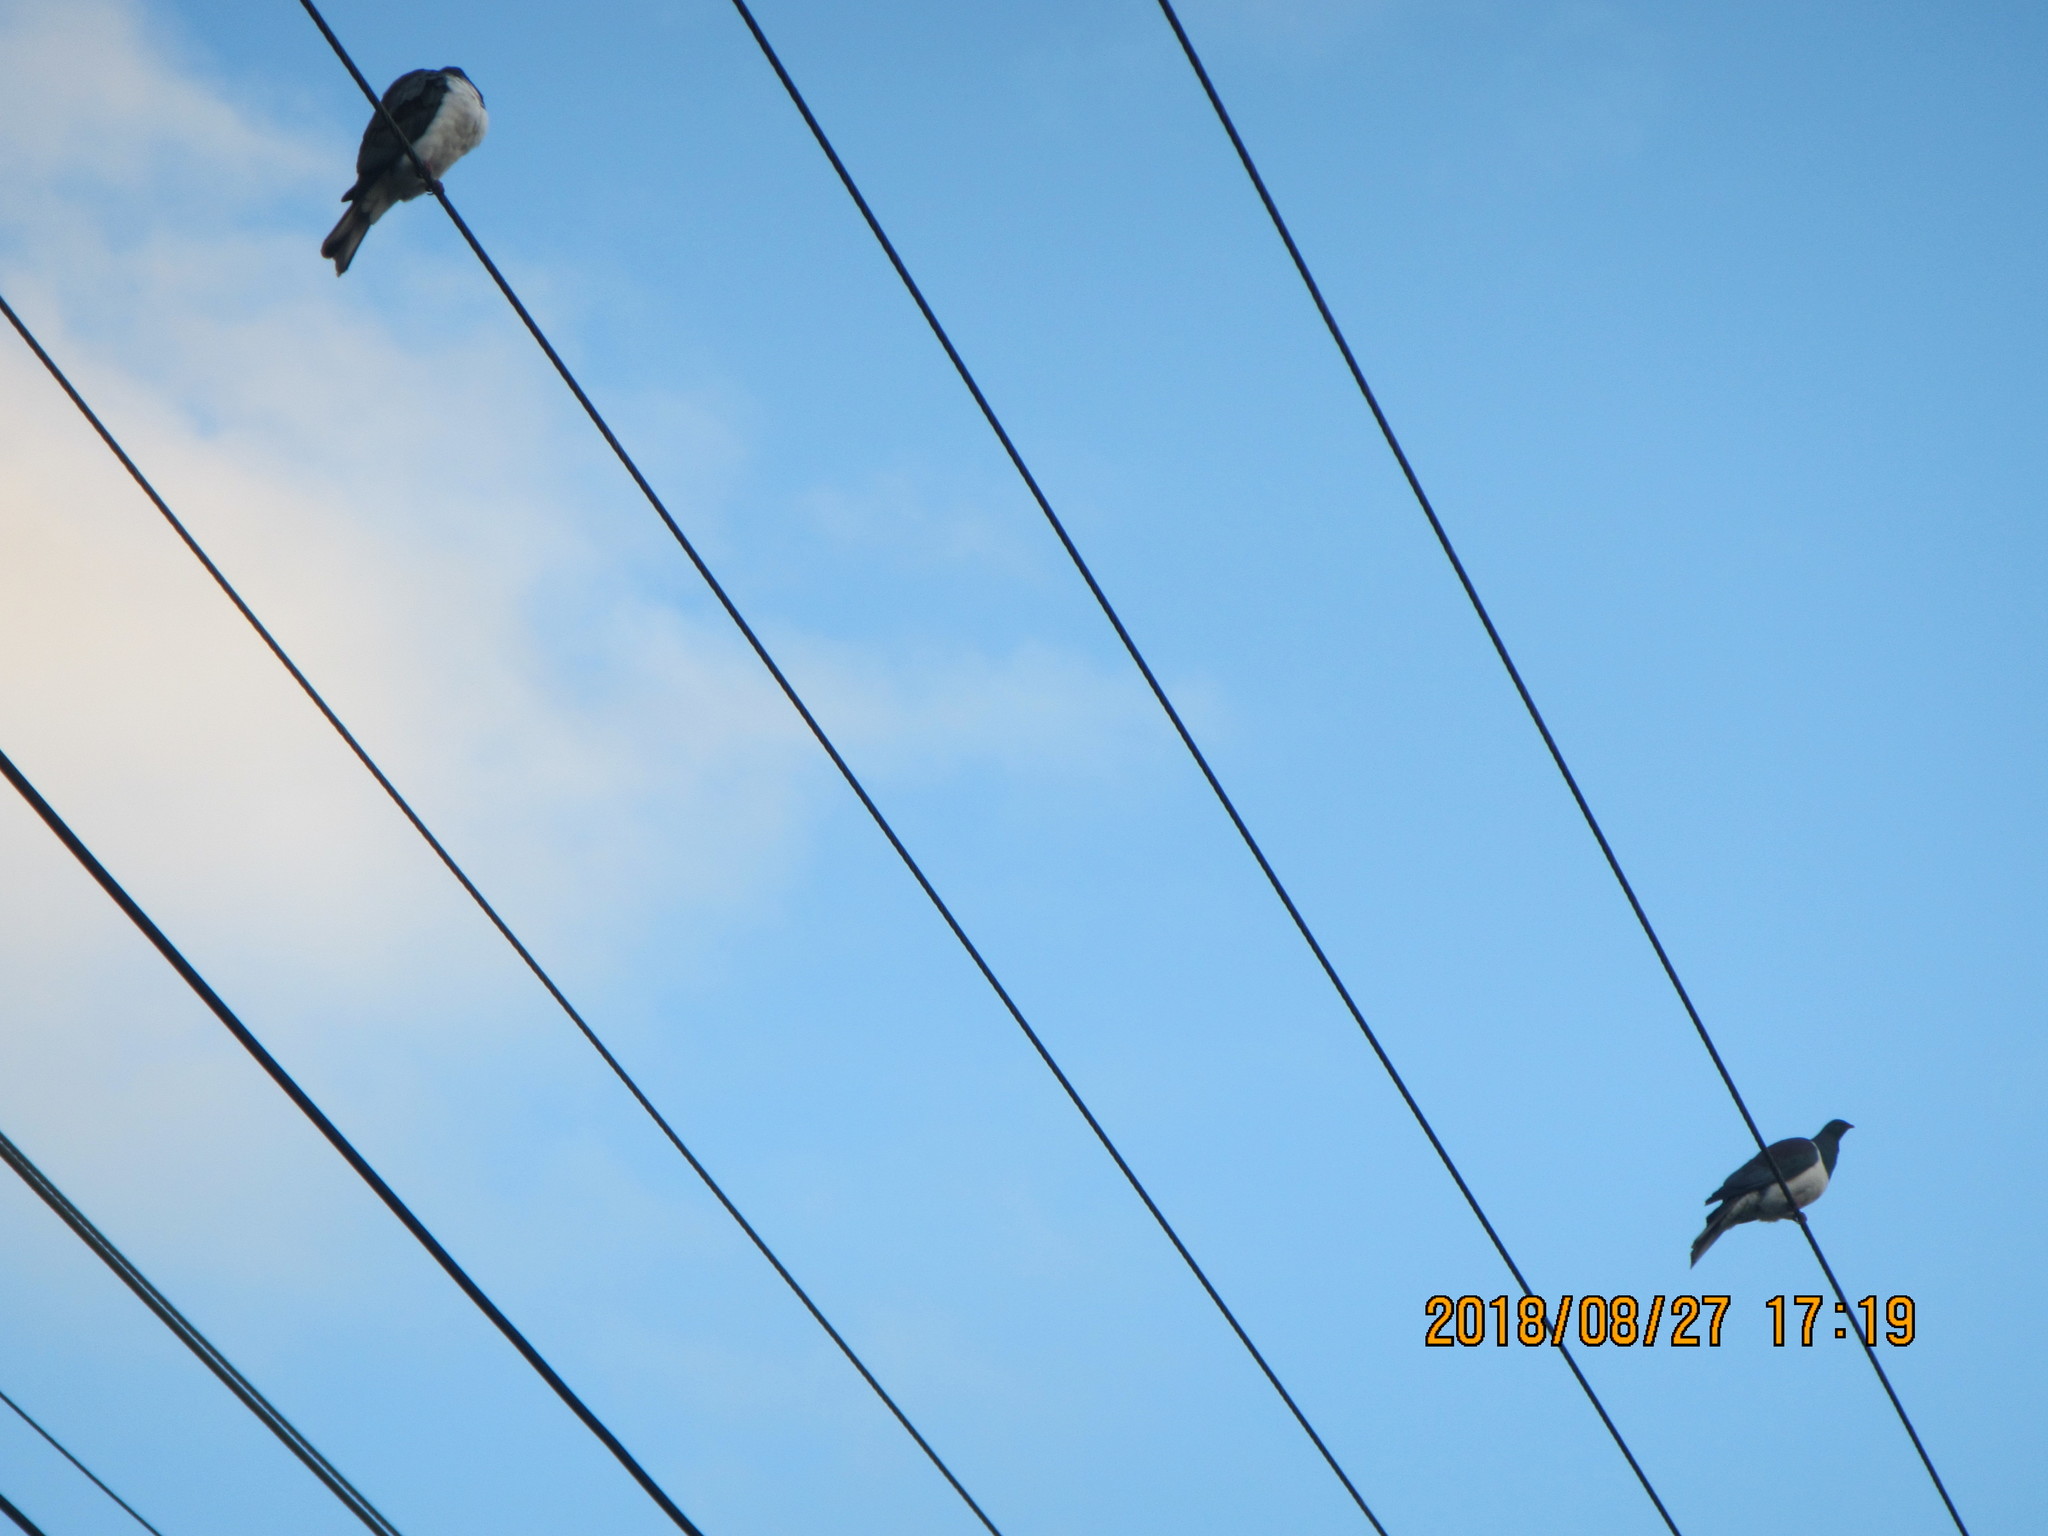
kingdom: Animalia
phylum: Chordata
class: Aves
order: Columbiformes
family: Columbidae
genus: Hemiphaga
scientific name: Hemiphaga novaeseelandiae
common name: New zealand pigeon
